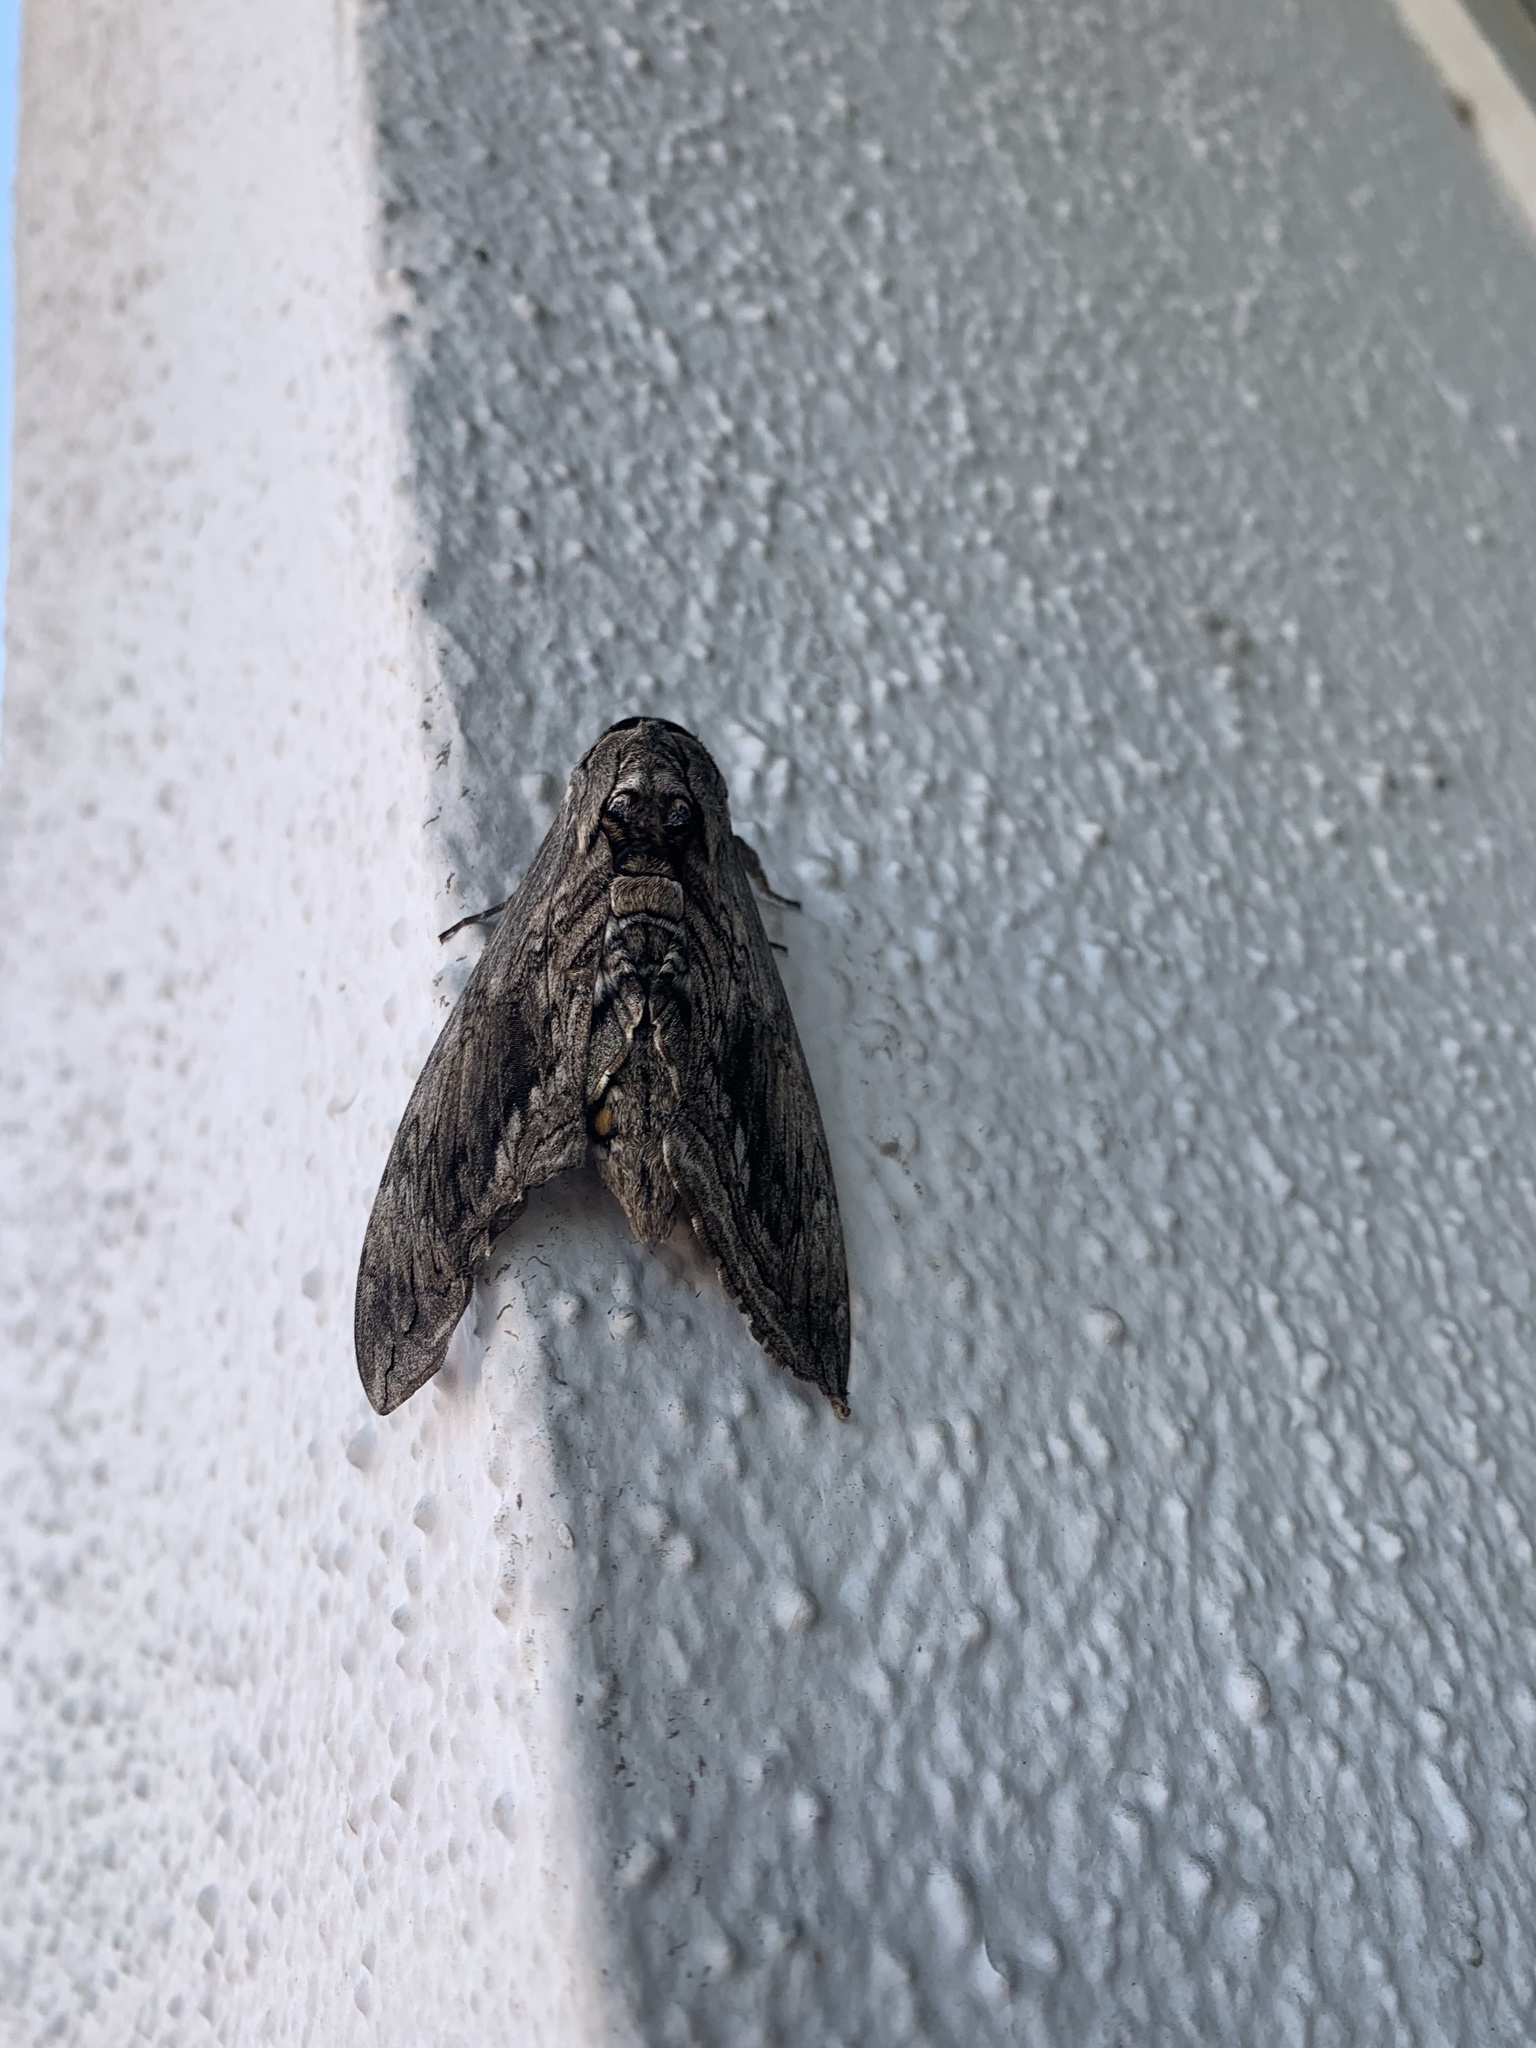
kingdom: Animalia
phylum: Arthropoda
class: Insecta
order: Lepidoptera
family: Sphingidae
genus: Manduca
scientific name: Manduca quinquemaculatus
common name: Five-spotted hawk-moth
